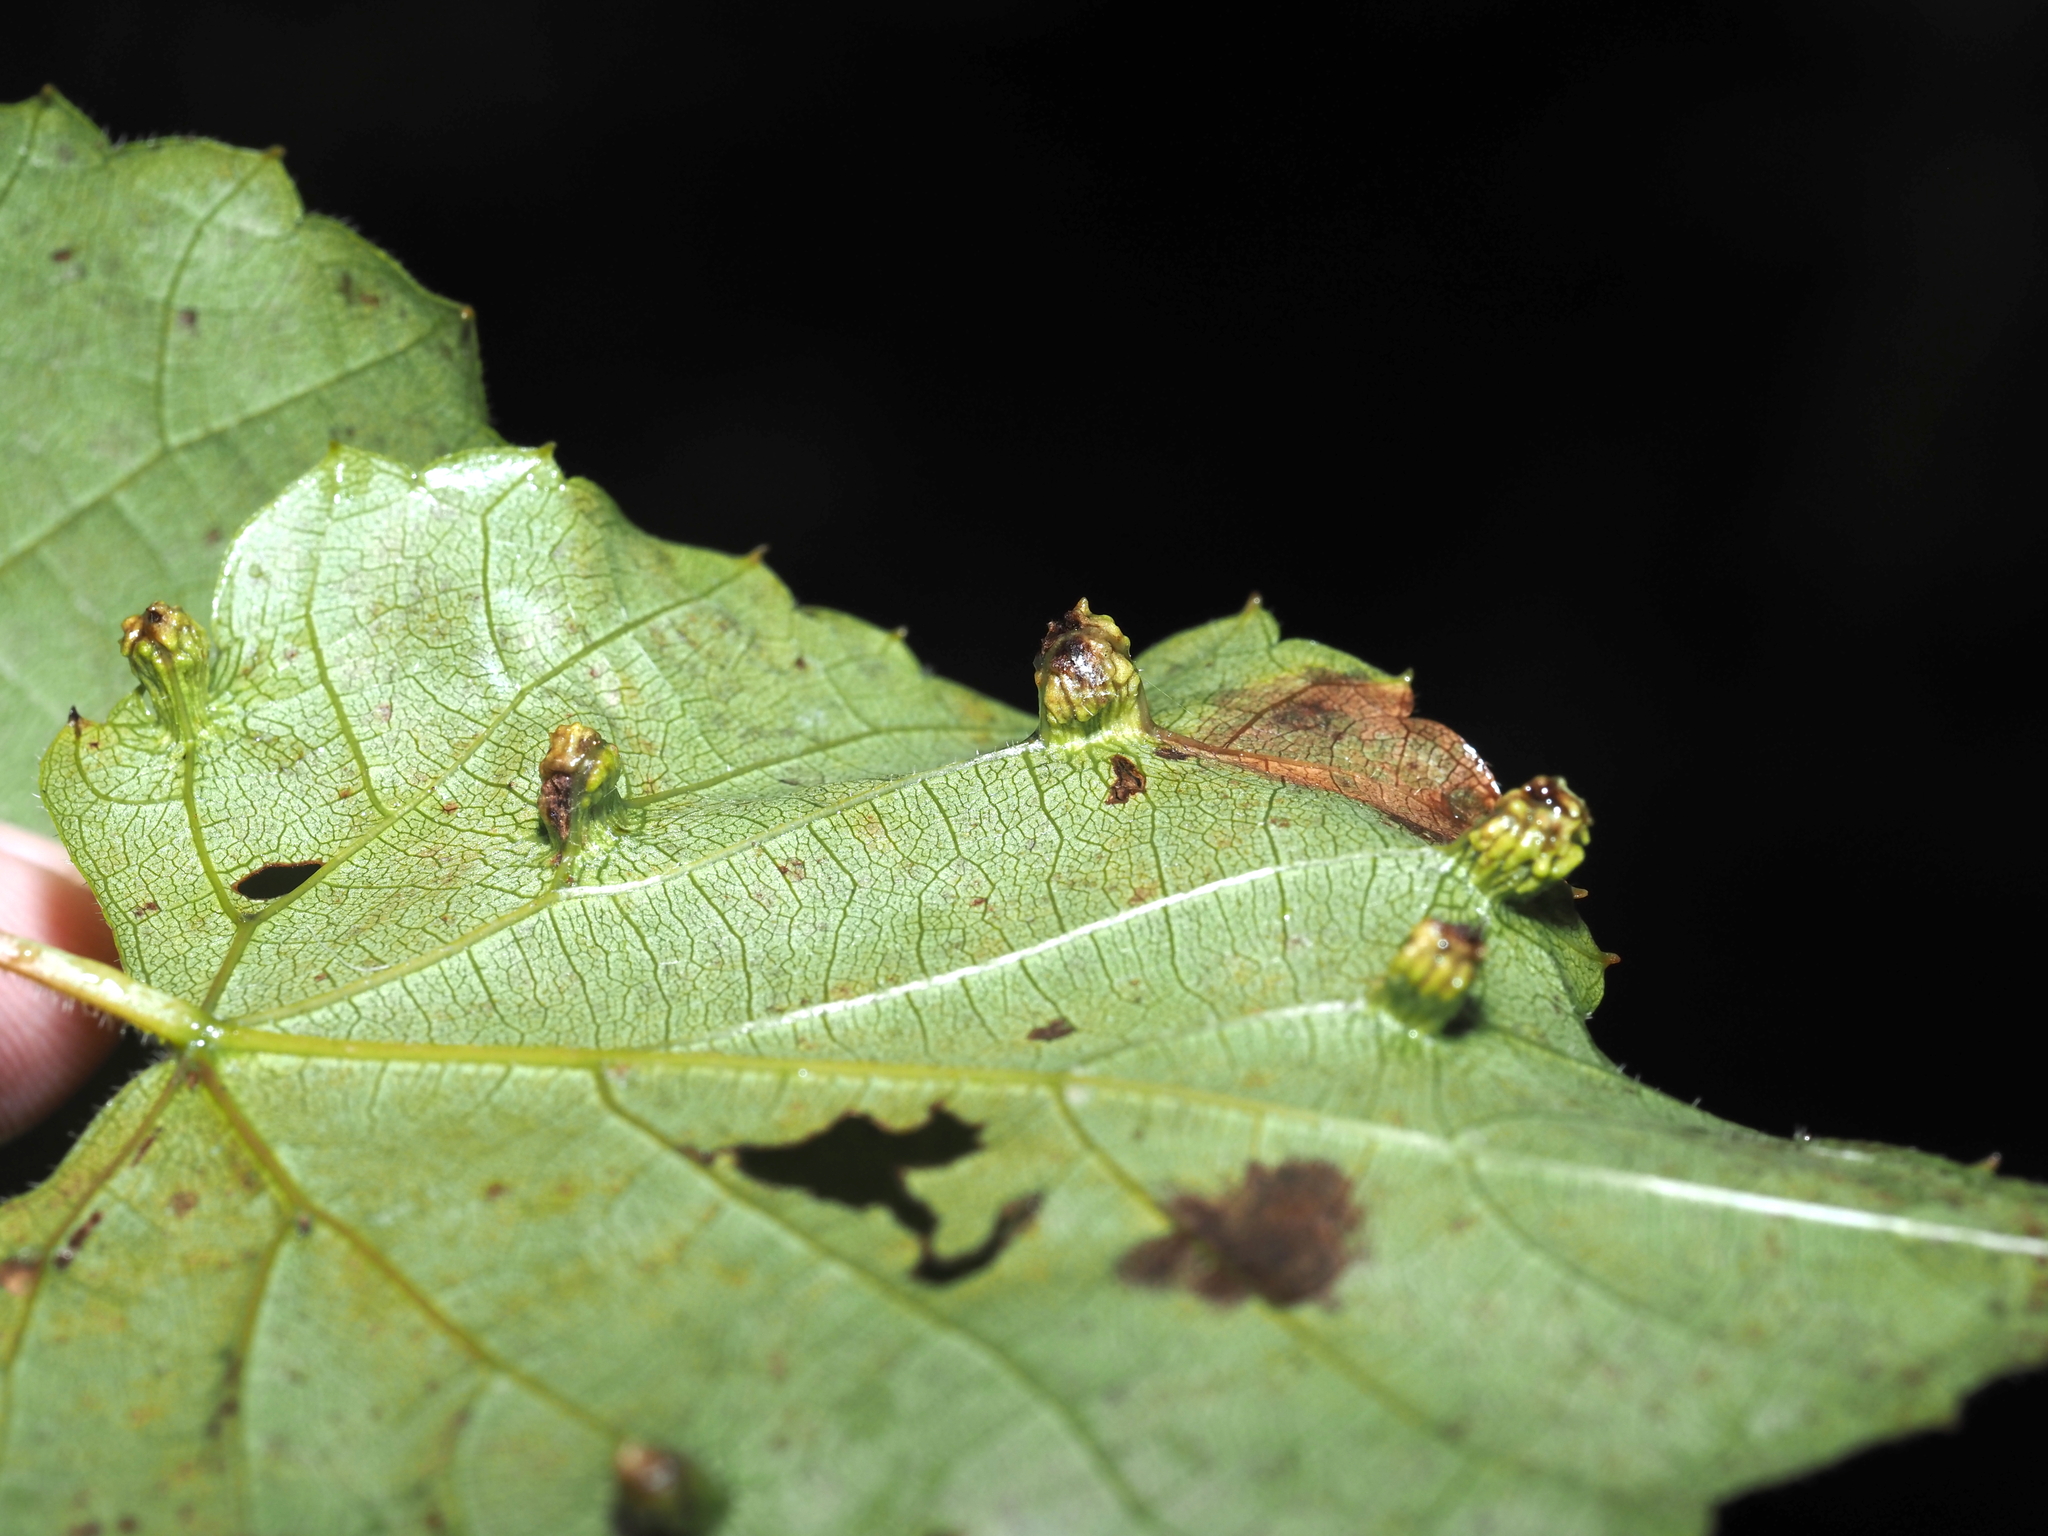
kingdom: Animalia
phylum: Arthropoda
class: Insecta
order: Hemiptera
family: Phylloxeridae
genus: Daktulosphaira
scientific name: Daktulosphaira vitifoliae
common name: Grape phylloxera
